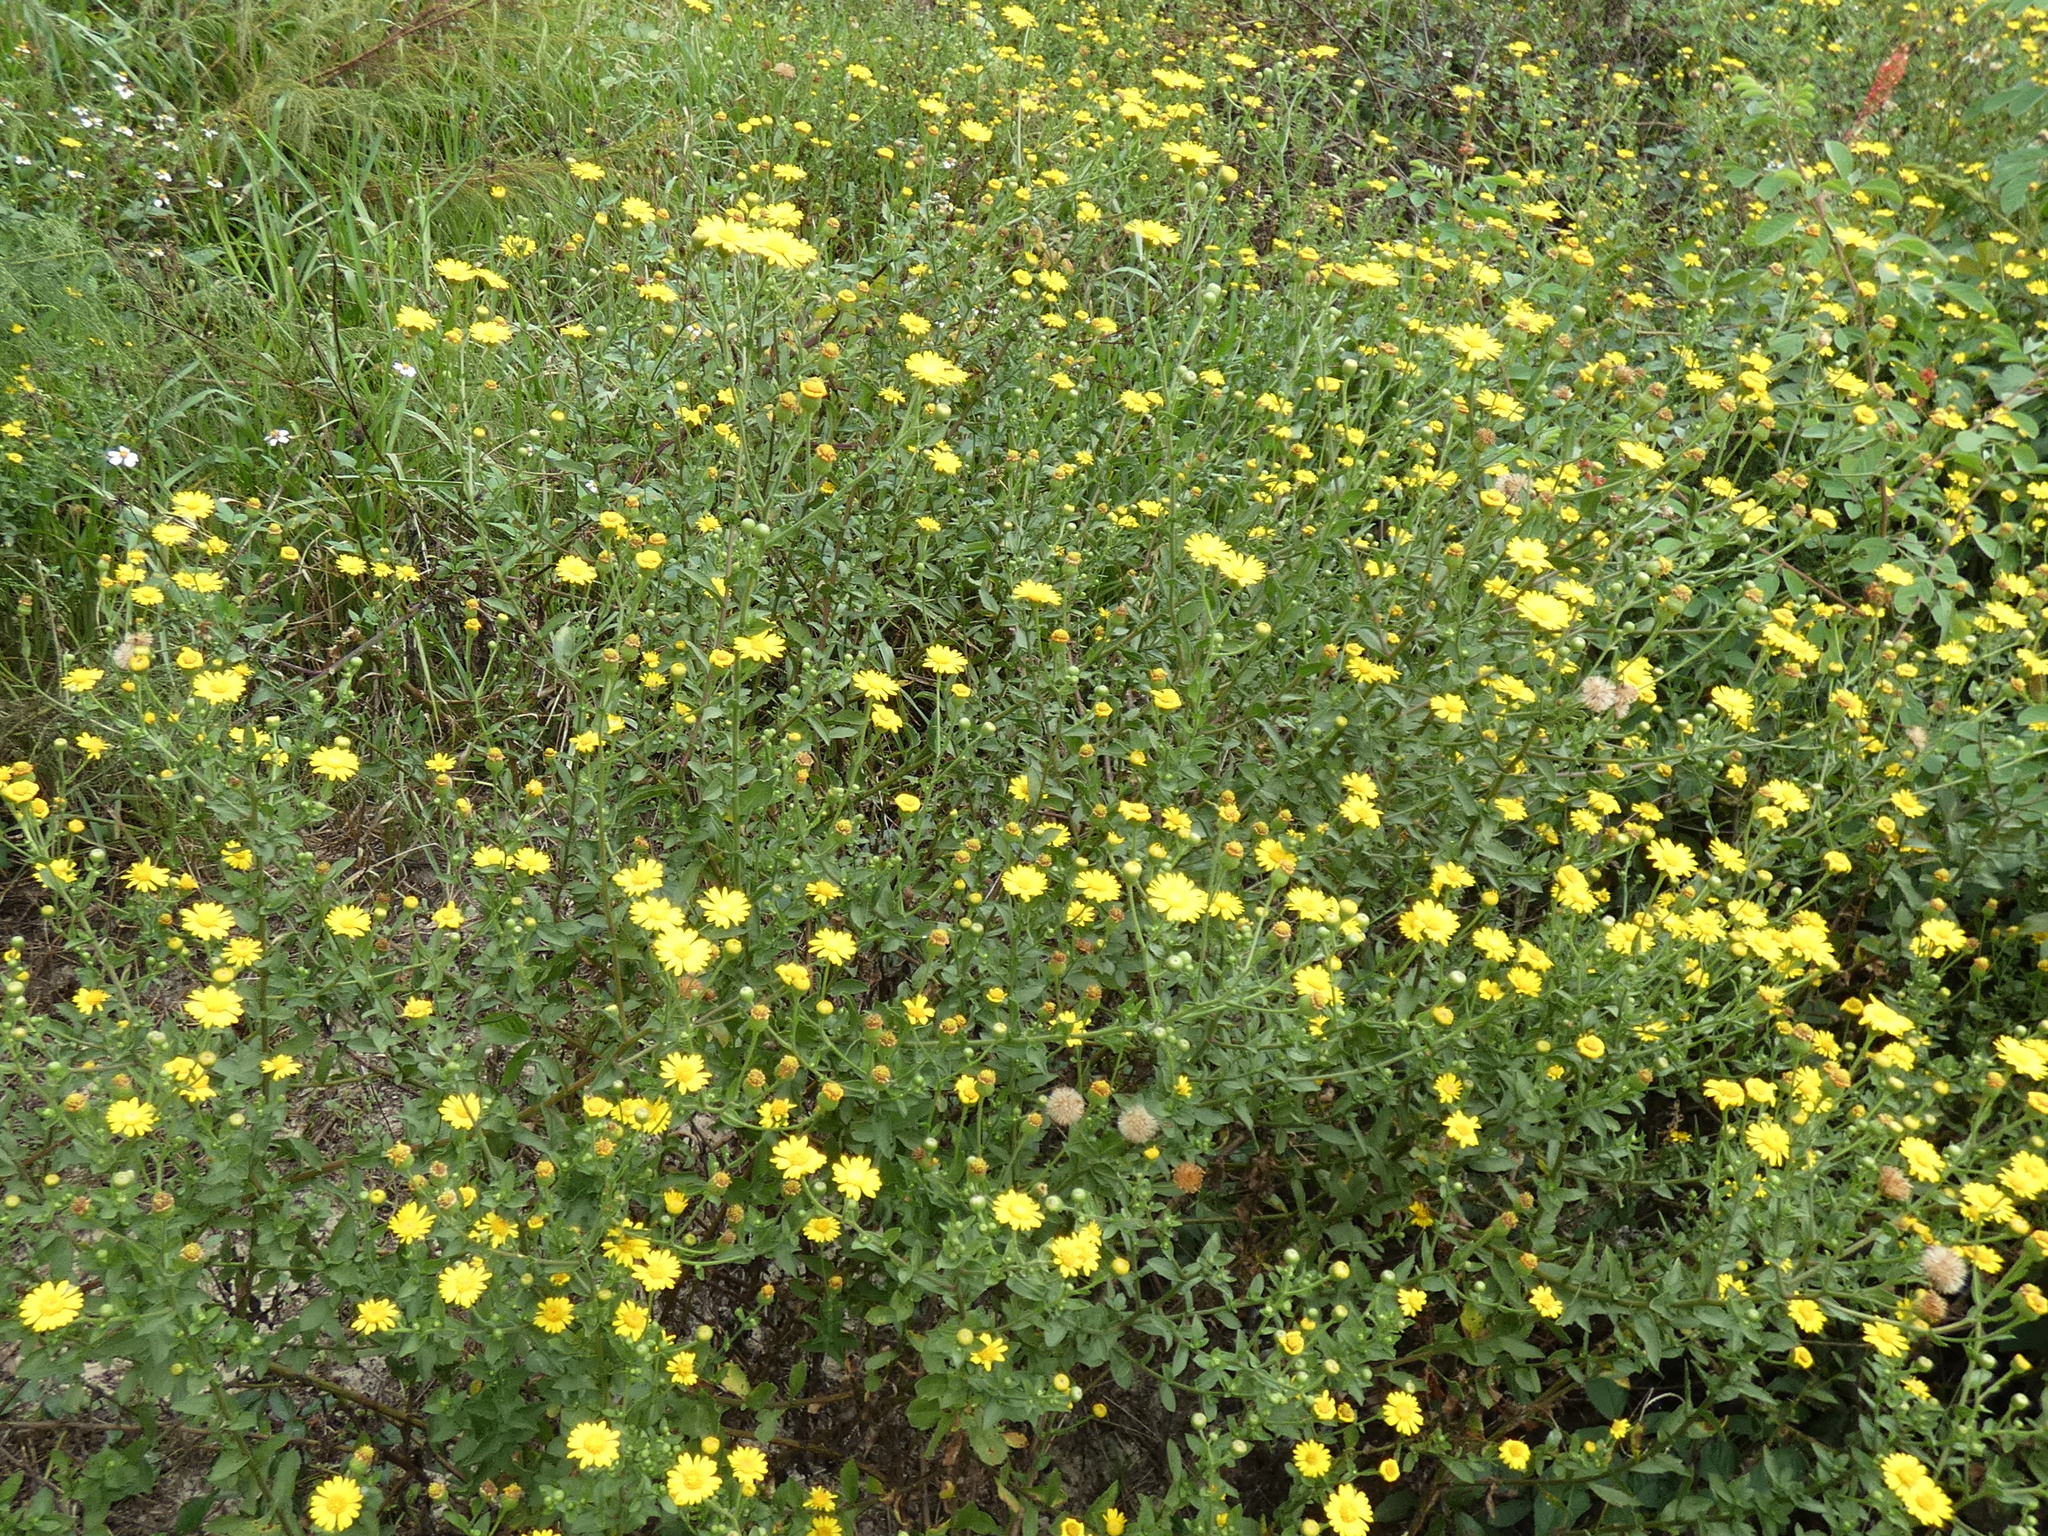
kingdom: Plantae
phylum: Tracheophyta
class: Magnoliopsida
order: Asterales
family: Asteraceae
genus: Heterotheca
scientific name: Heterotheca subaxillaris
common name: Camphorweed
